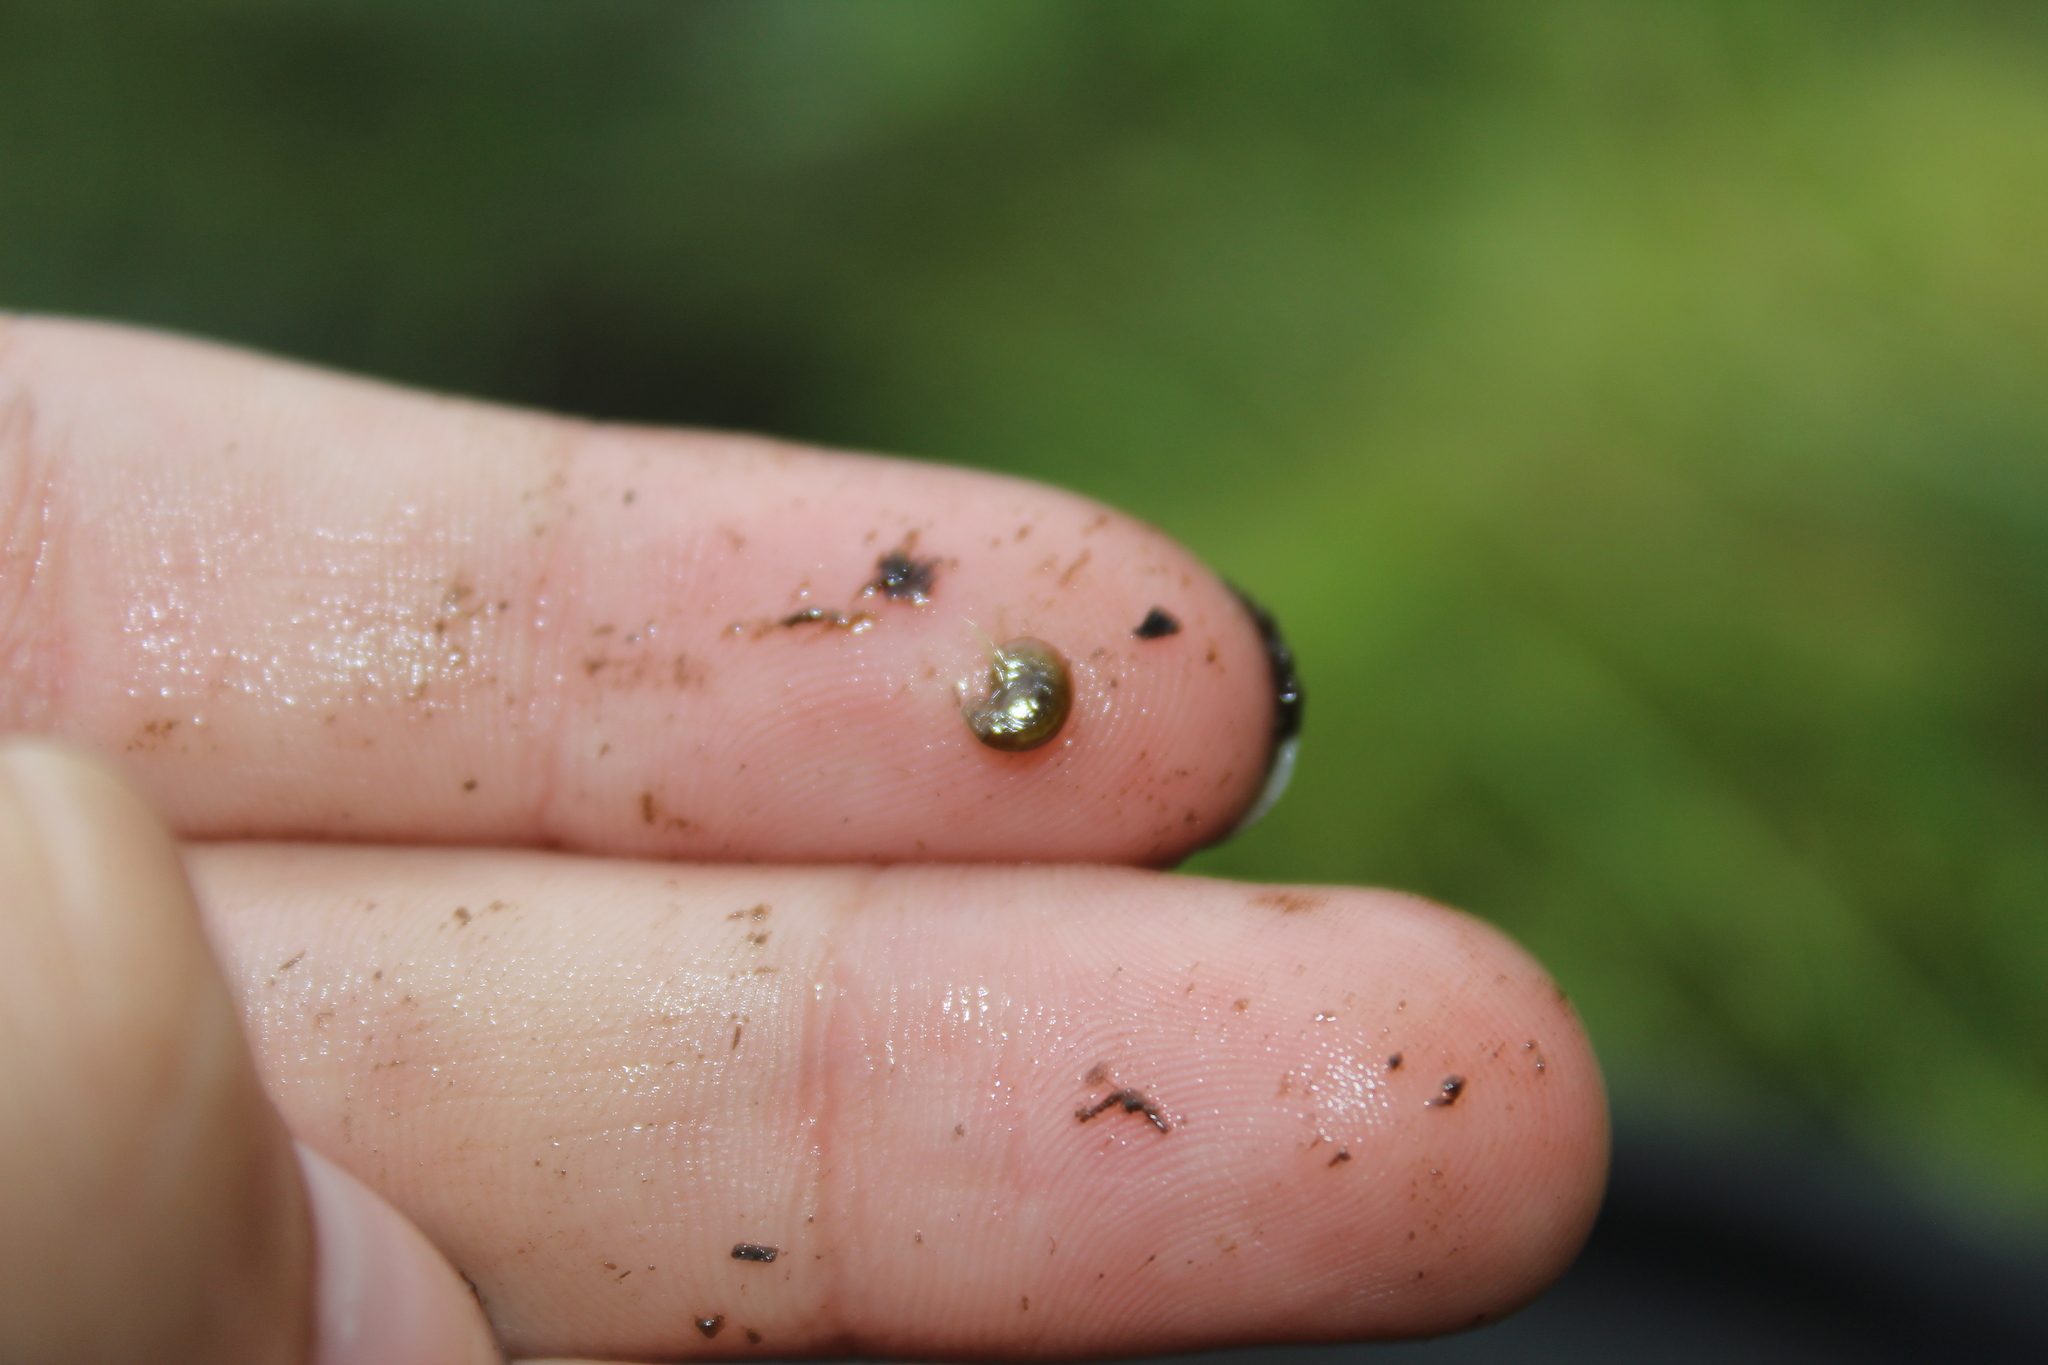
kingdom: Animalia
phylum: Arthropoda
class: Malacostraca
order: Amphipoda
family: Crangonyctidae
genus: Sicifera
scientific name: Sicifera chamberlaini
